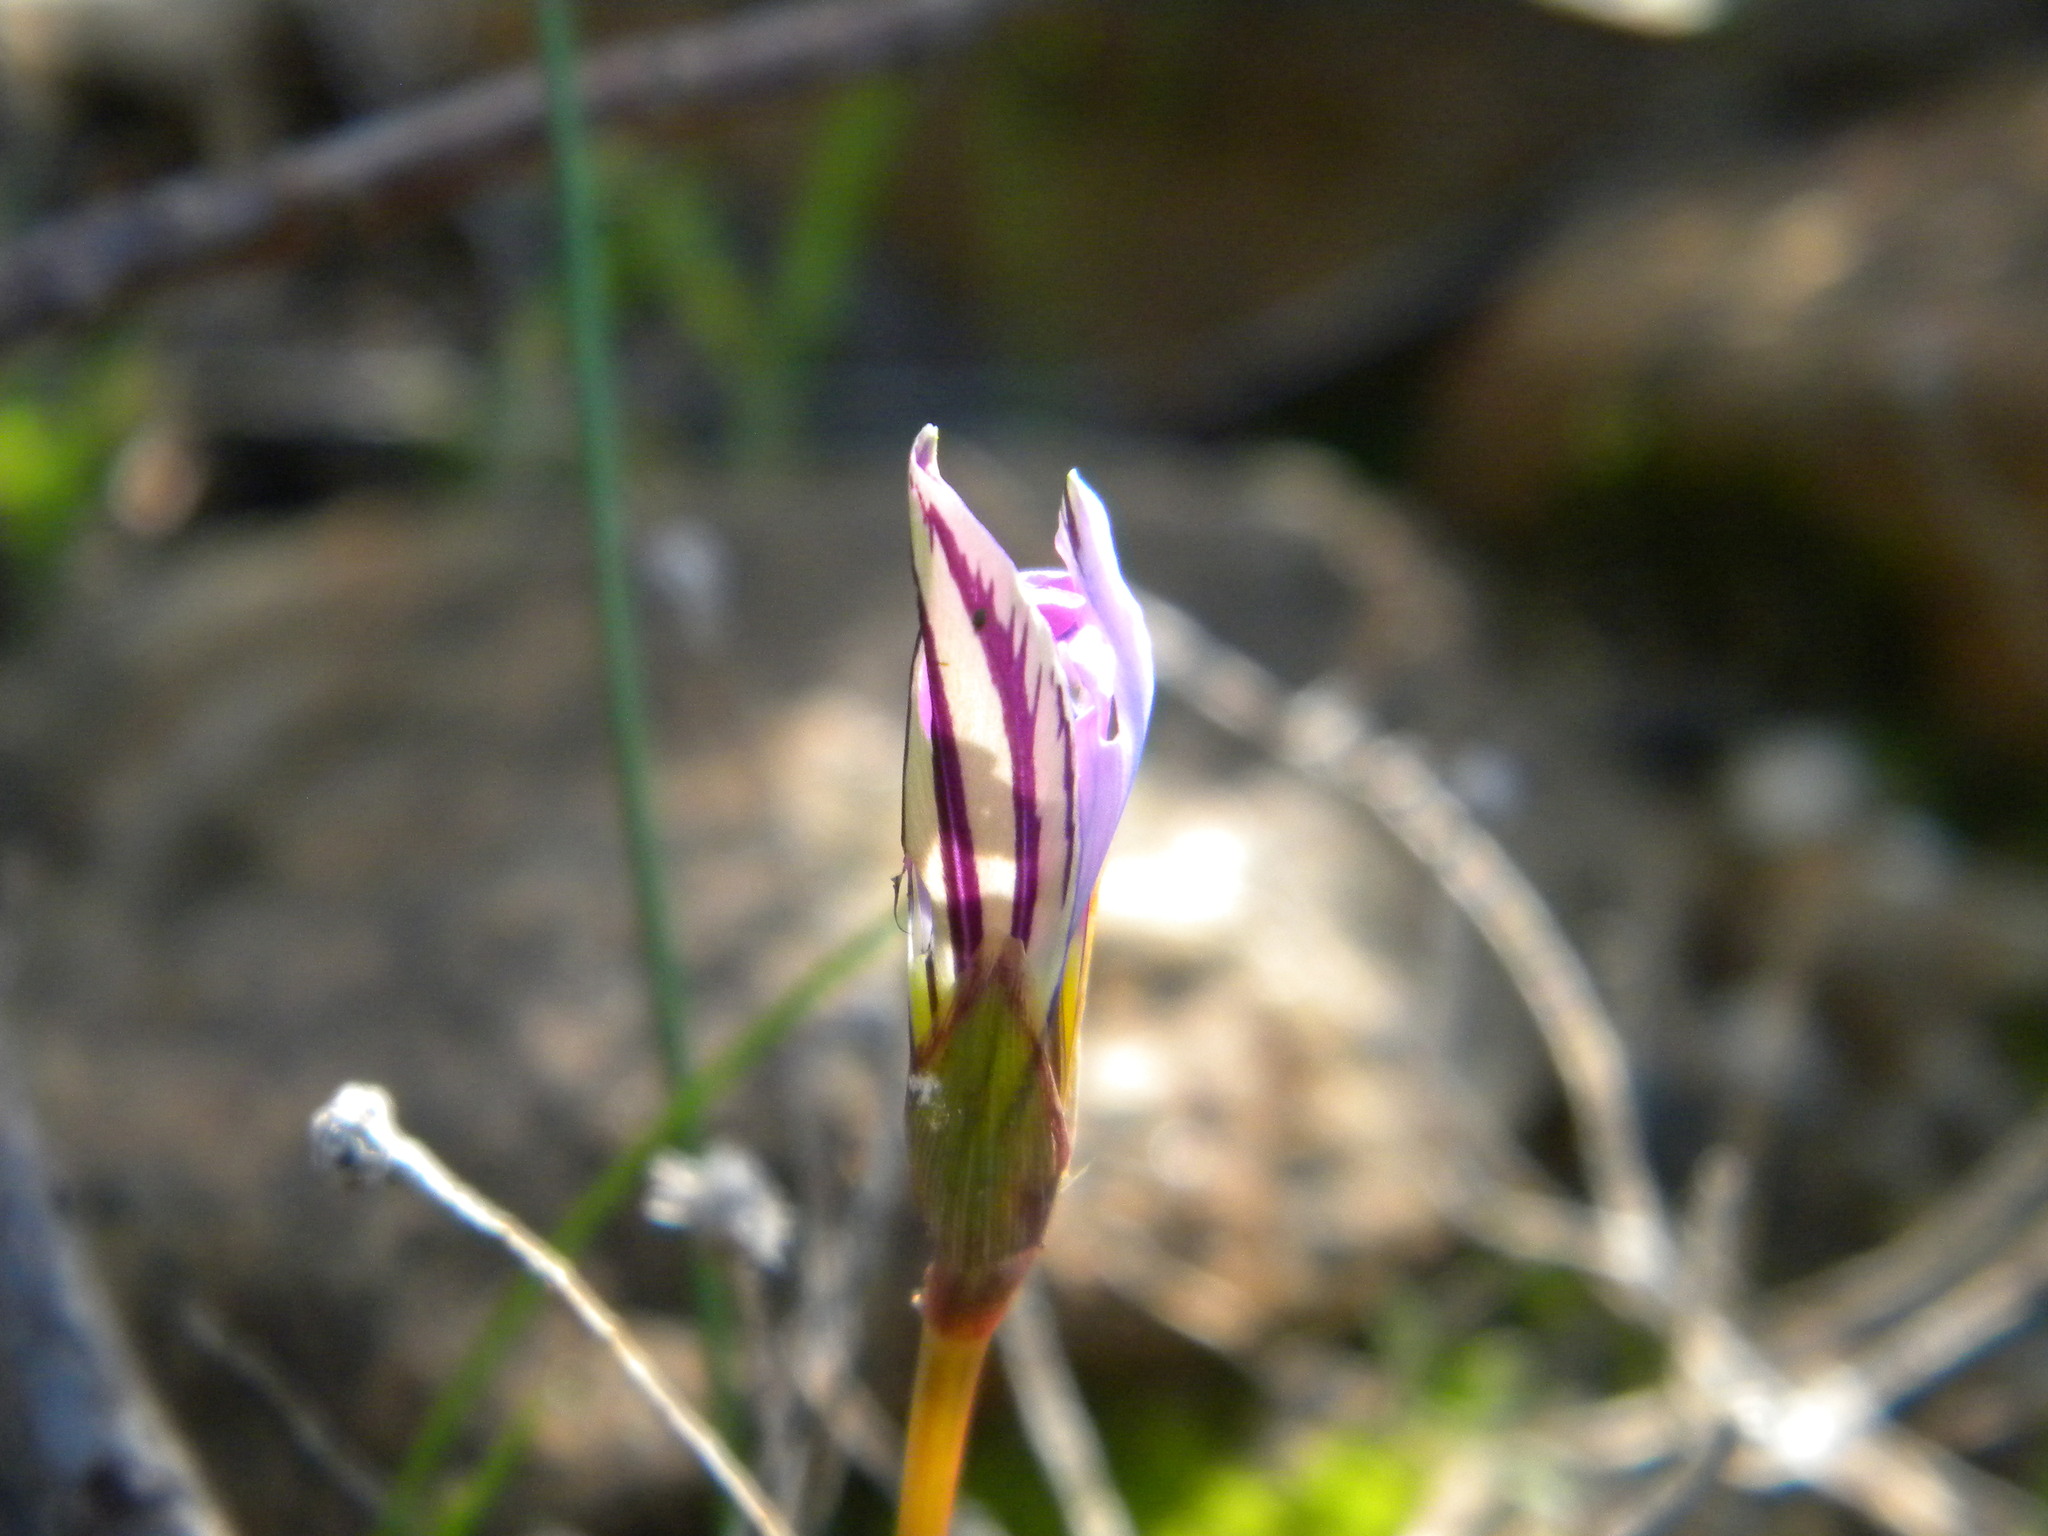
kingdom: Plantae
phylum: Tracheophyta
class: Liliopsida
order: Asparagales
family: Iridaceae
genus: Romulea
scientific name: Romulea rosea
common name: Oniongrass
